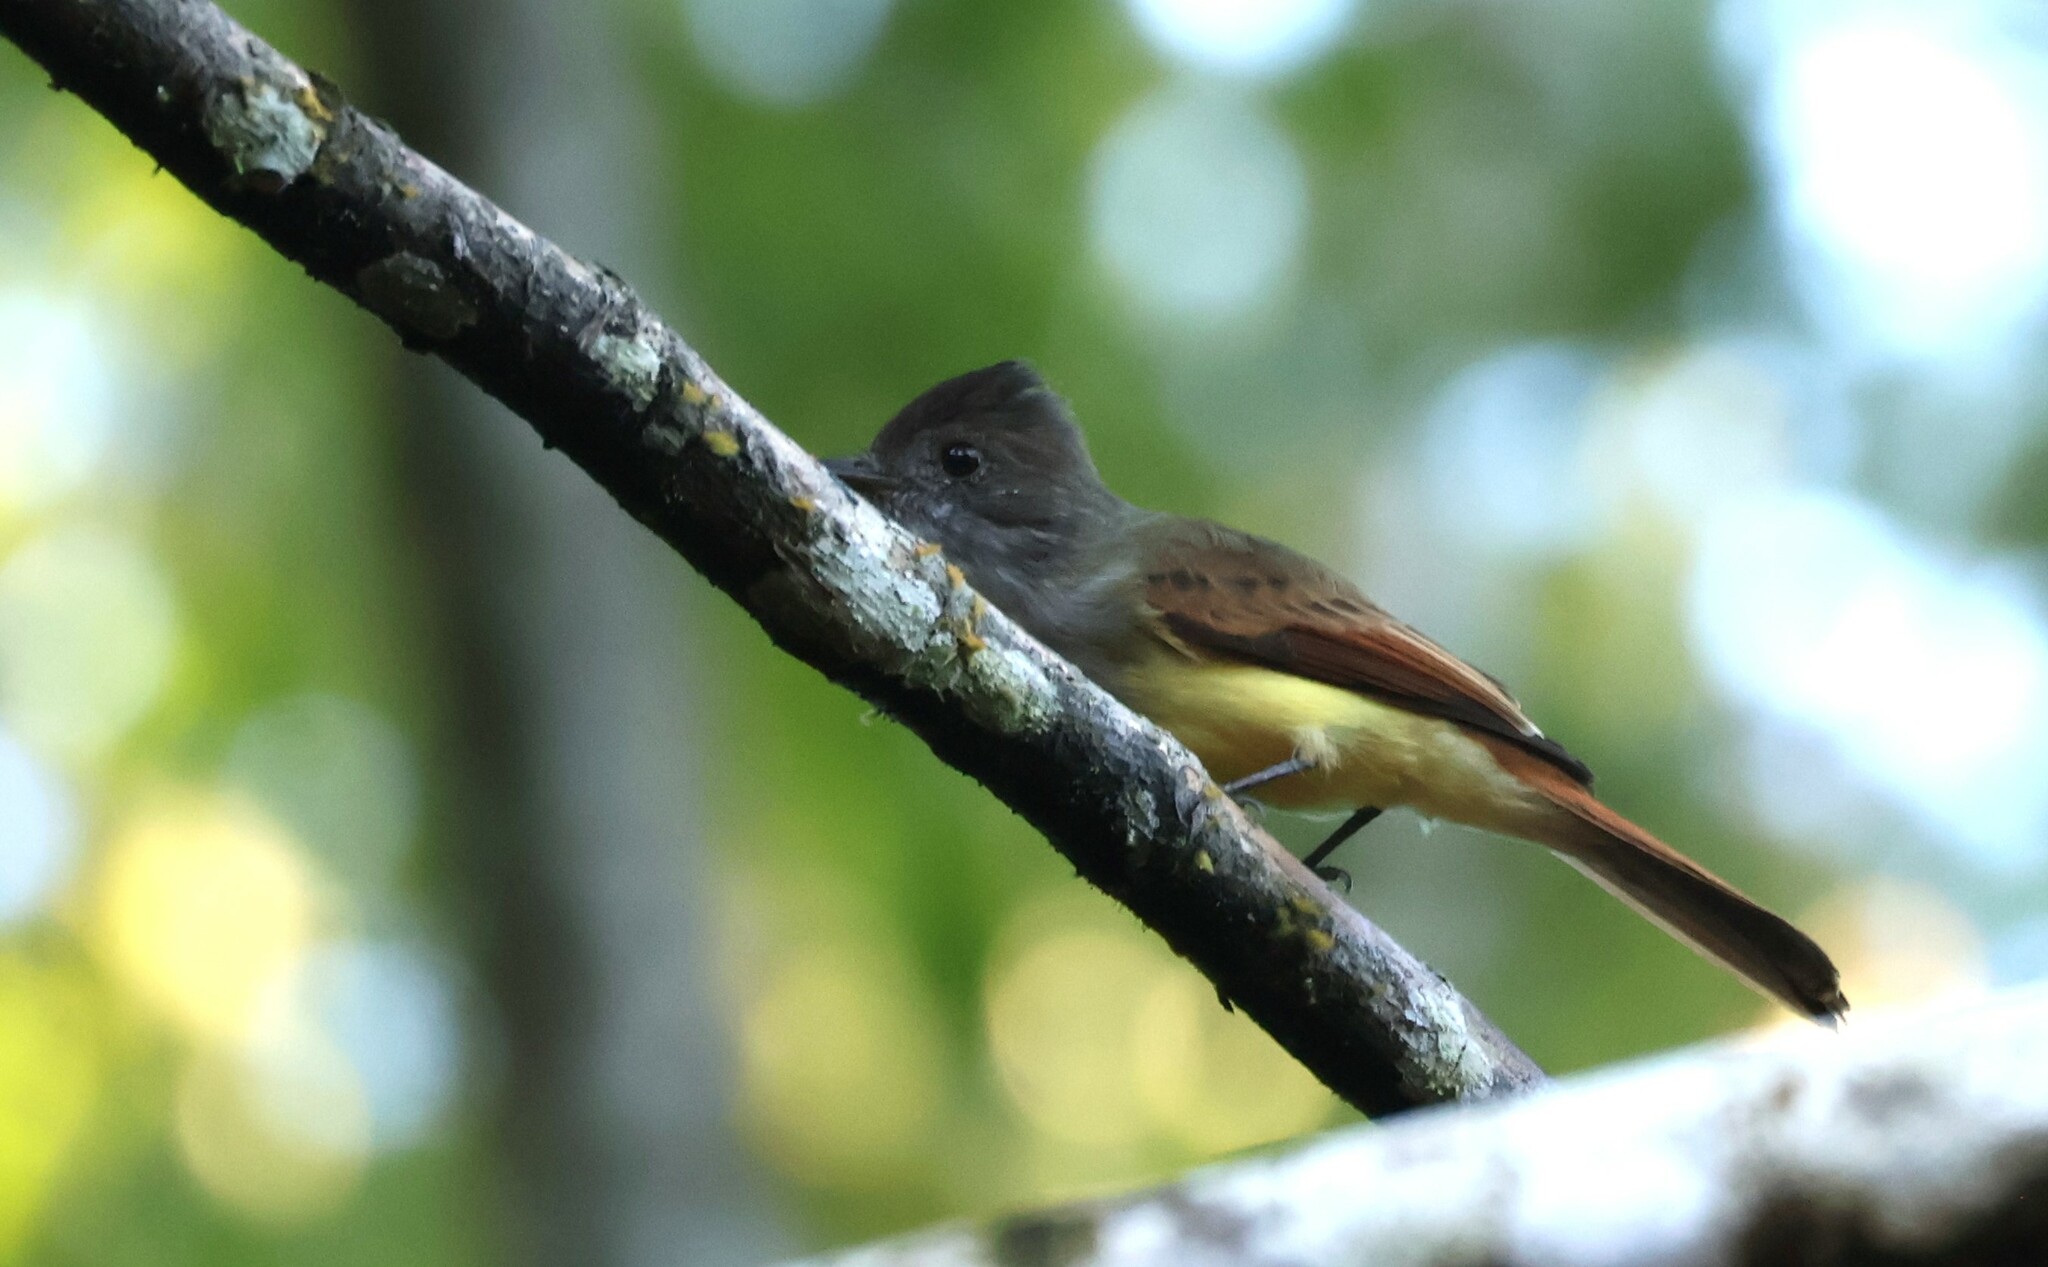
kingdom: Animalia
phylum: Chordata
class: Aves
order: Passeriformes
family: Tyrannidae
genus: Myiarchus
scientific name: Myiarchus tuberculifer
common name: Dusky-capped flycatcher
